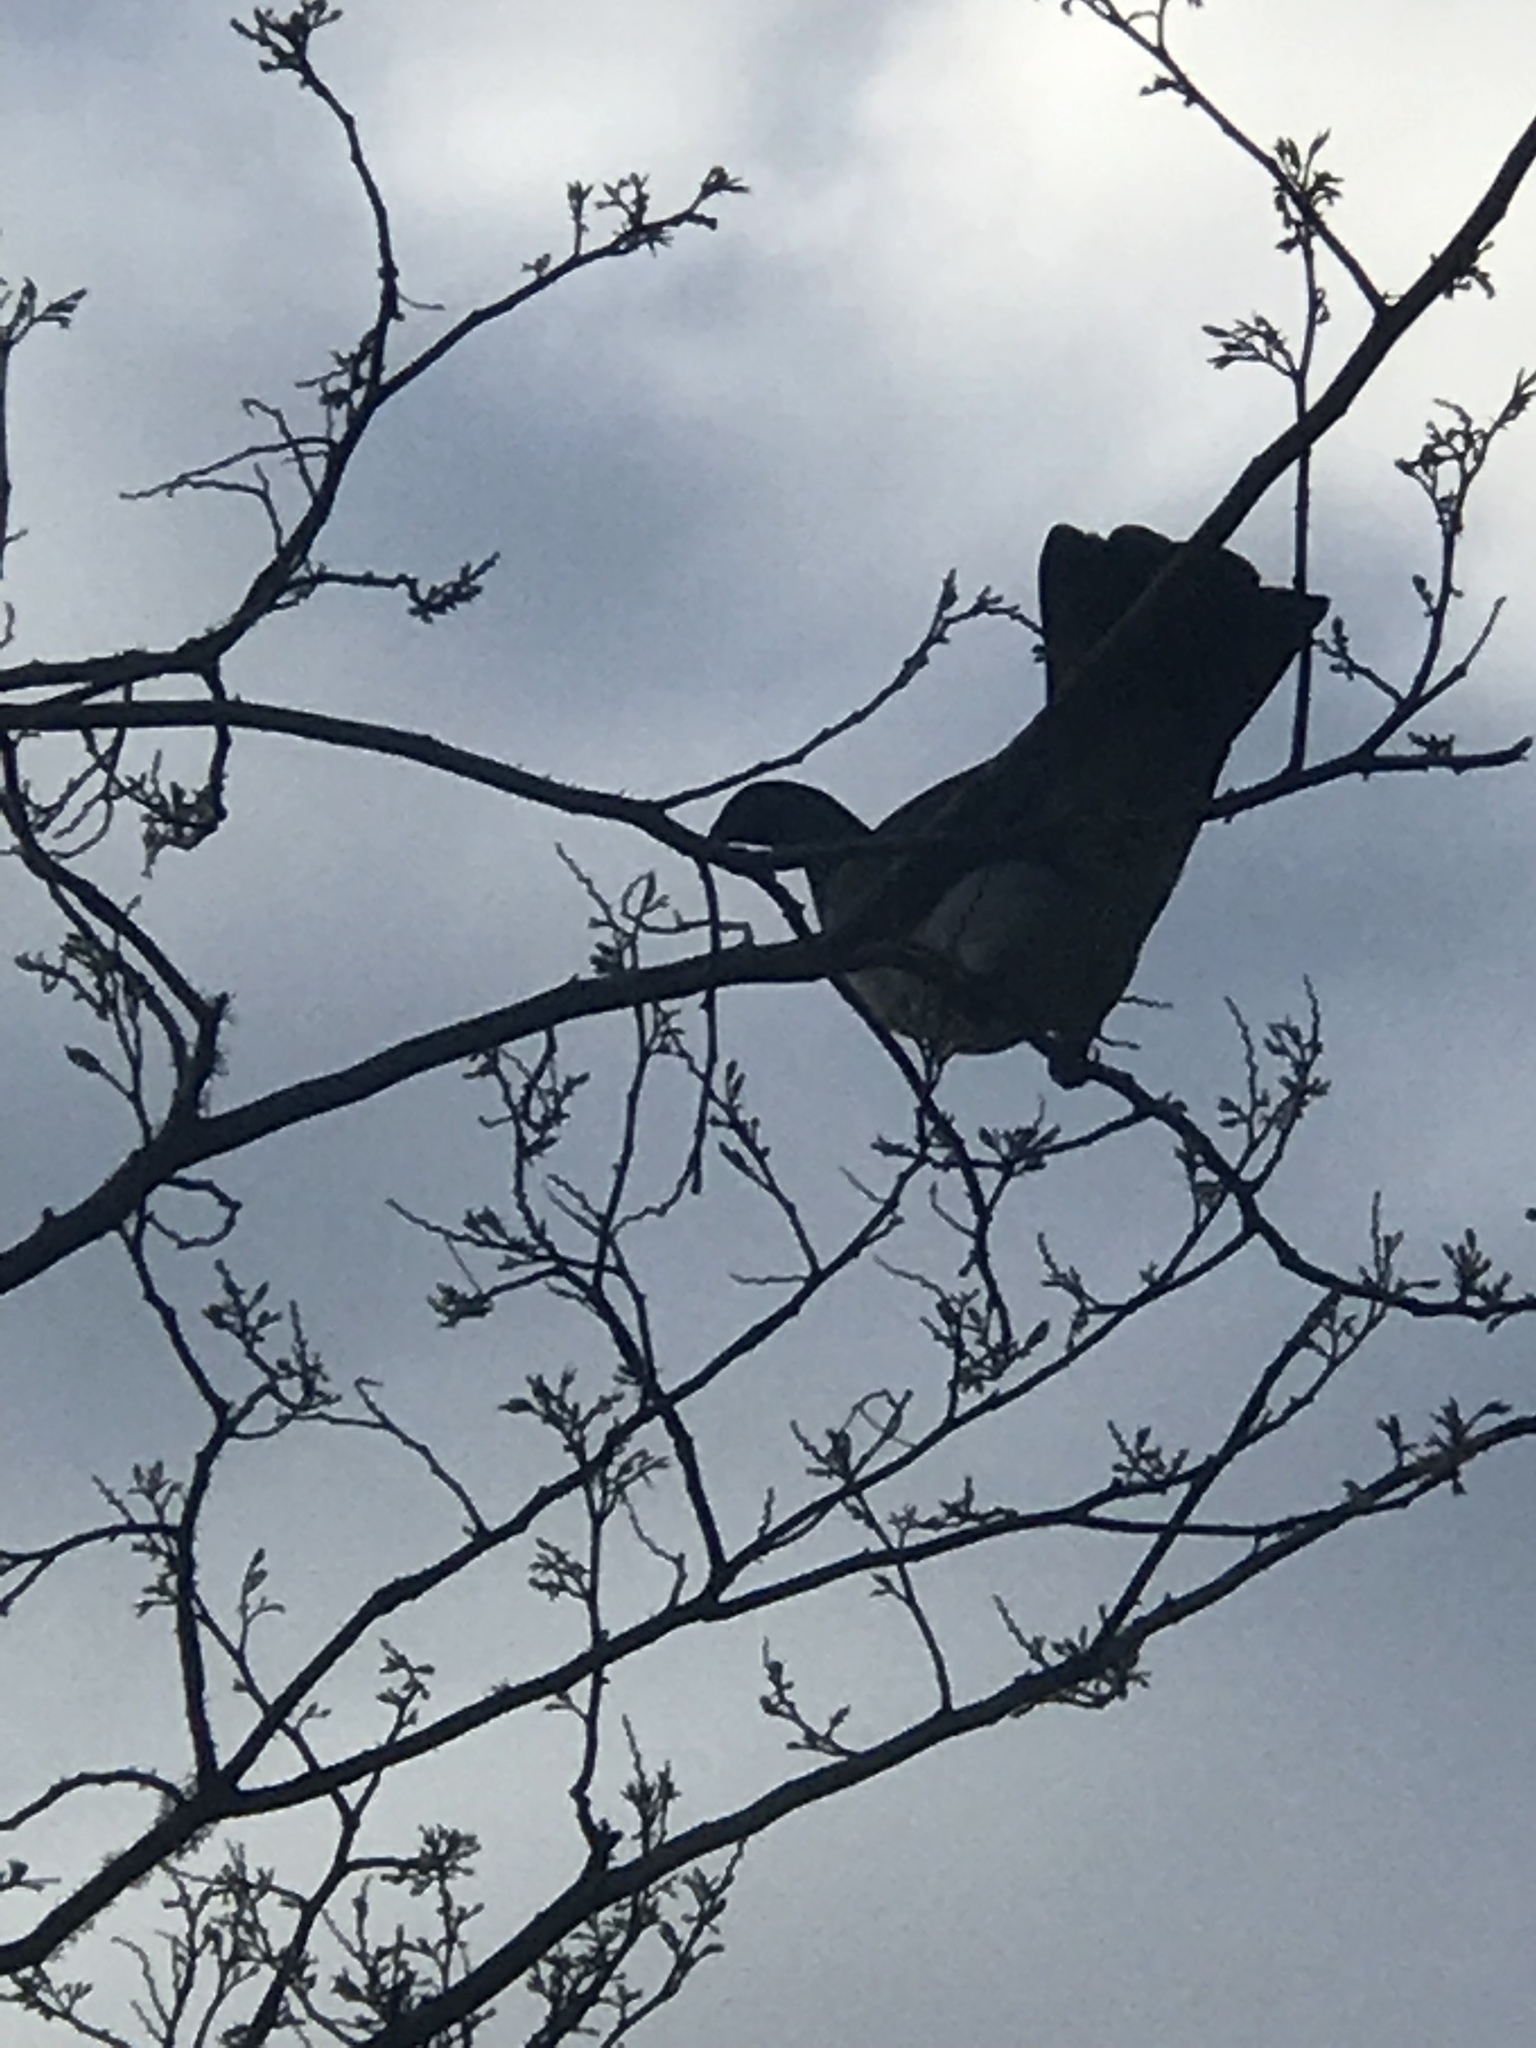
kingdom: Animalia
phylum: Chordata
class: Aves
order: Columbiformes
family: Columbidae
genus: Hemiphaga
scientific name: Hemiphaga novaeseelandiae
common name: New zealand pigeon
